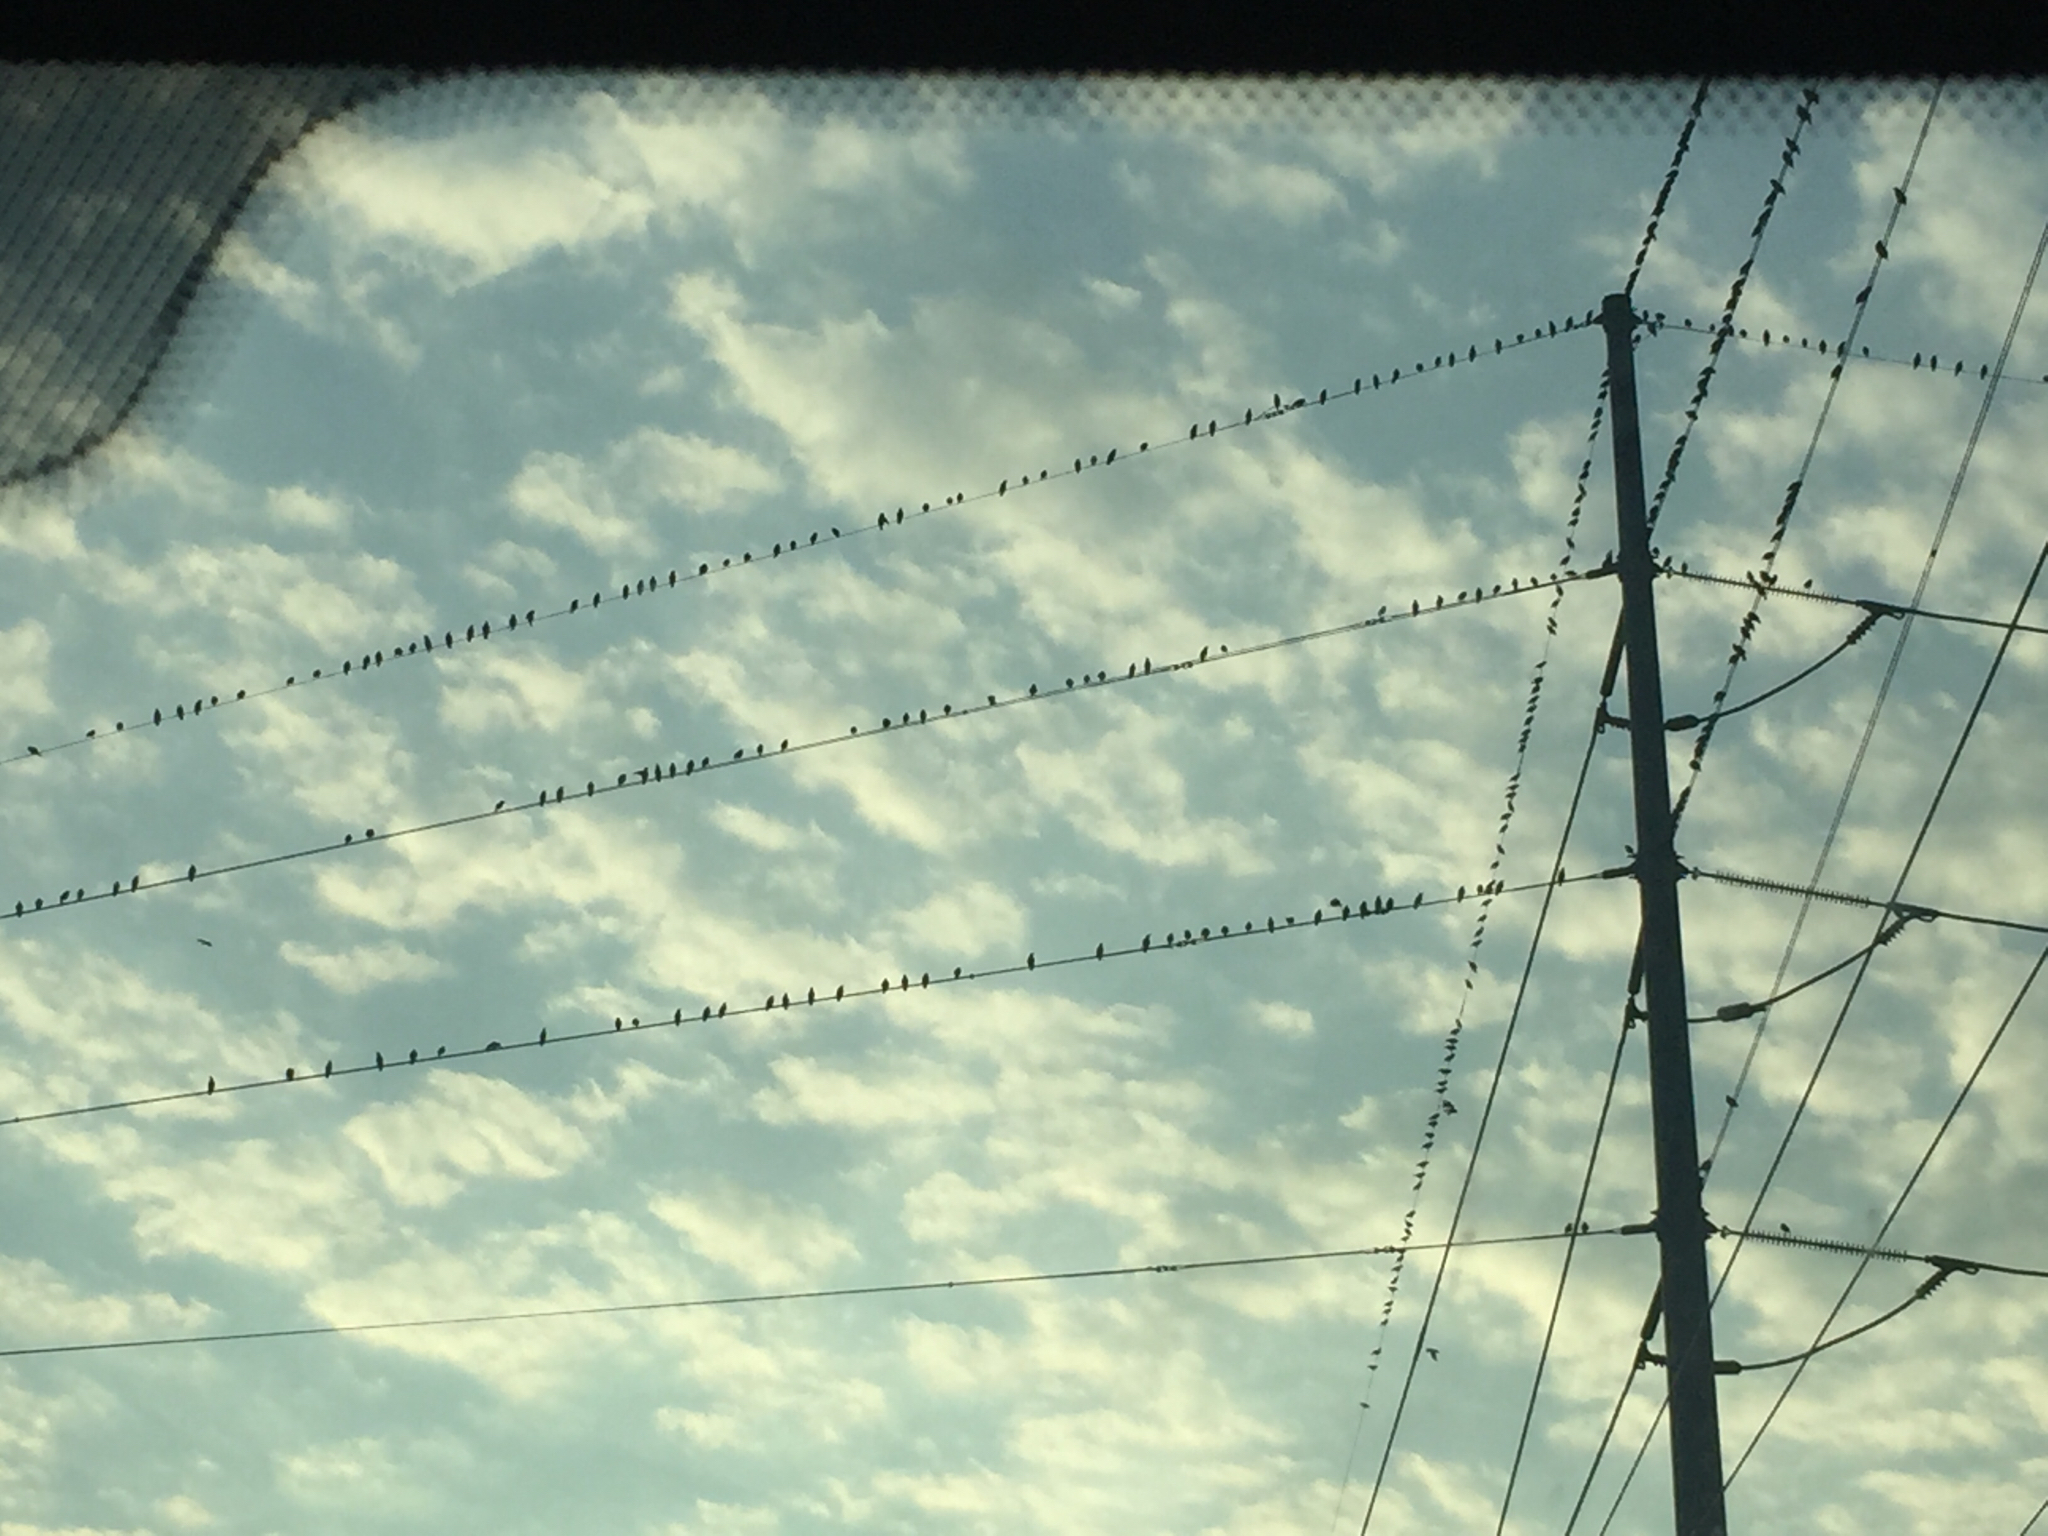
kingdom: Animalia
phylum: Chordata
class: Aves
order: Passeriformes
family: Sturnidae
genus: Sturnus
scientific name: Sturnus vulgaris
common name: Common starling
